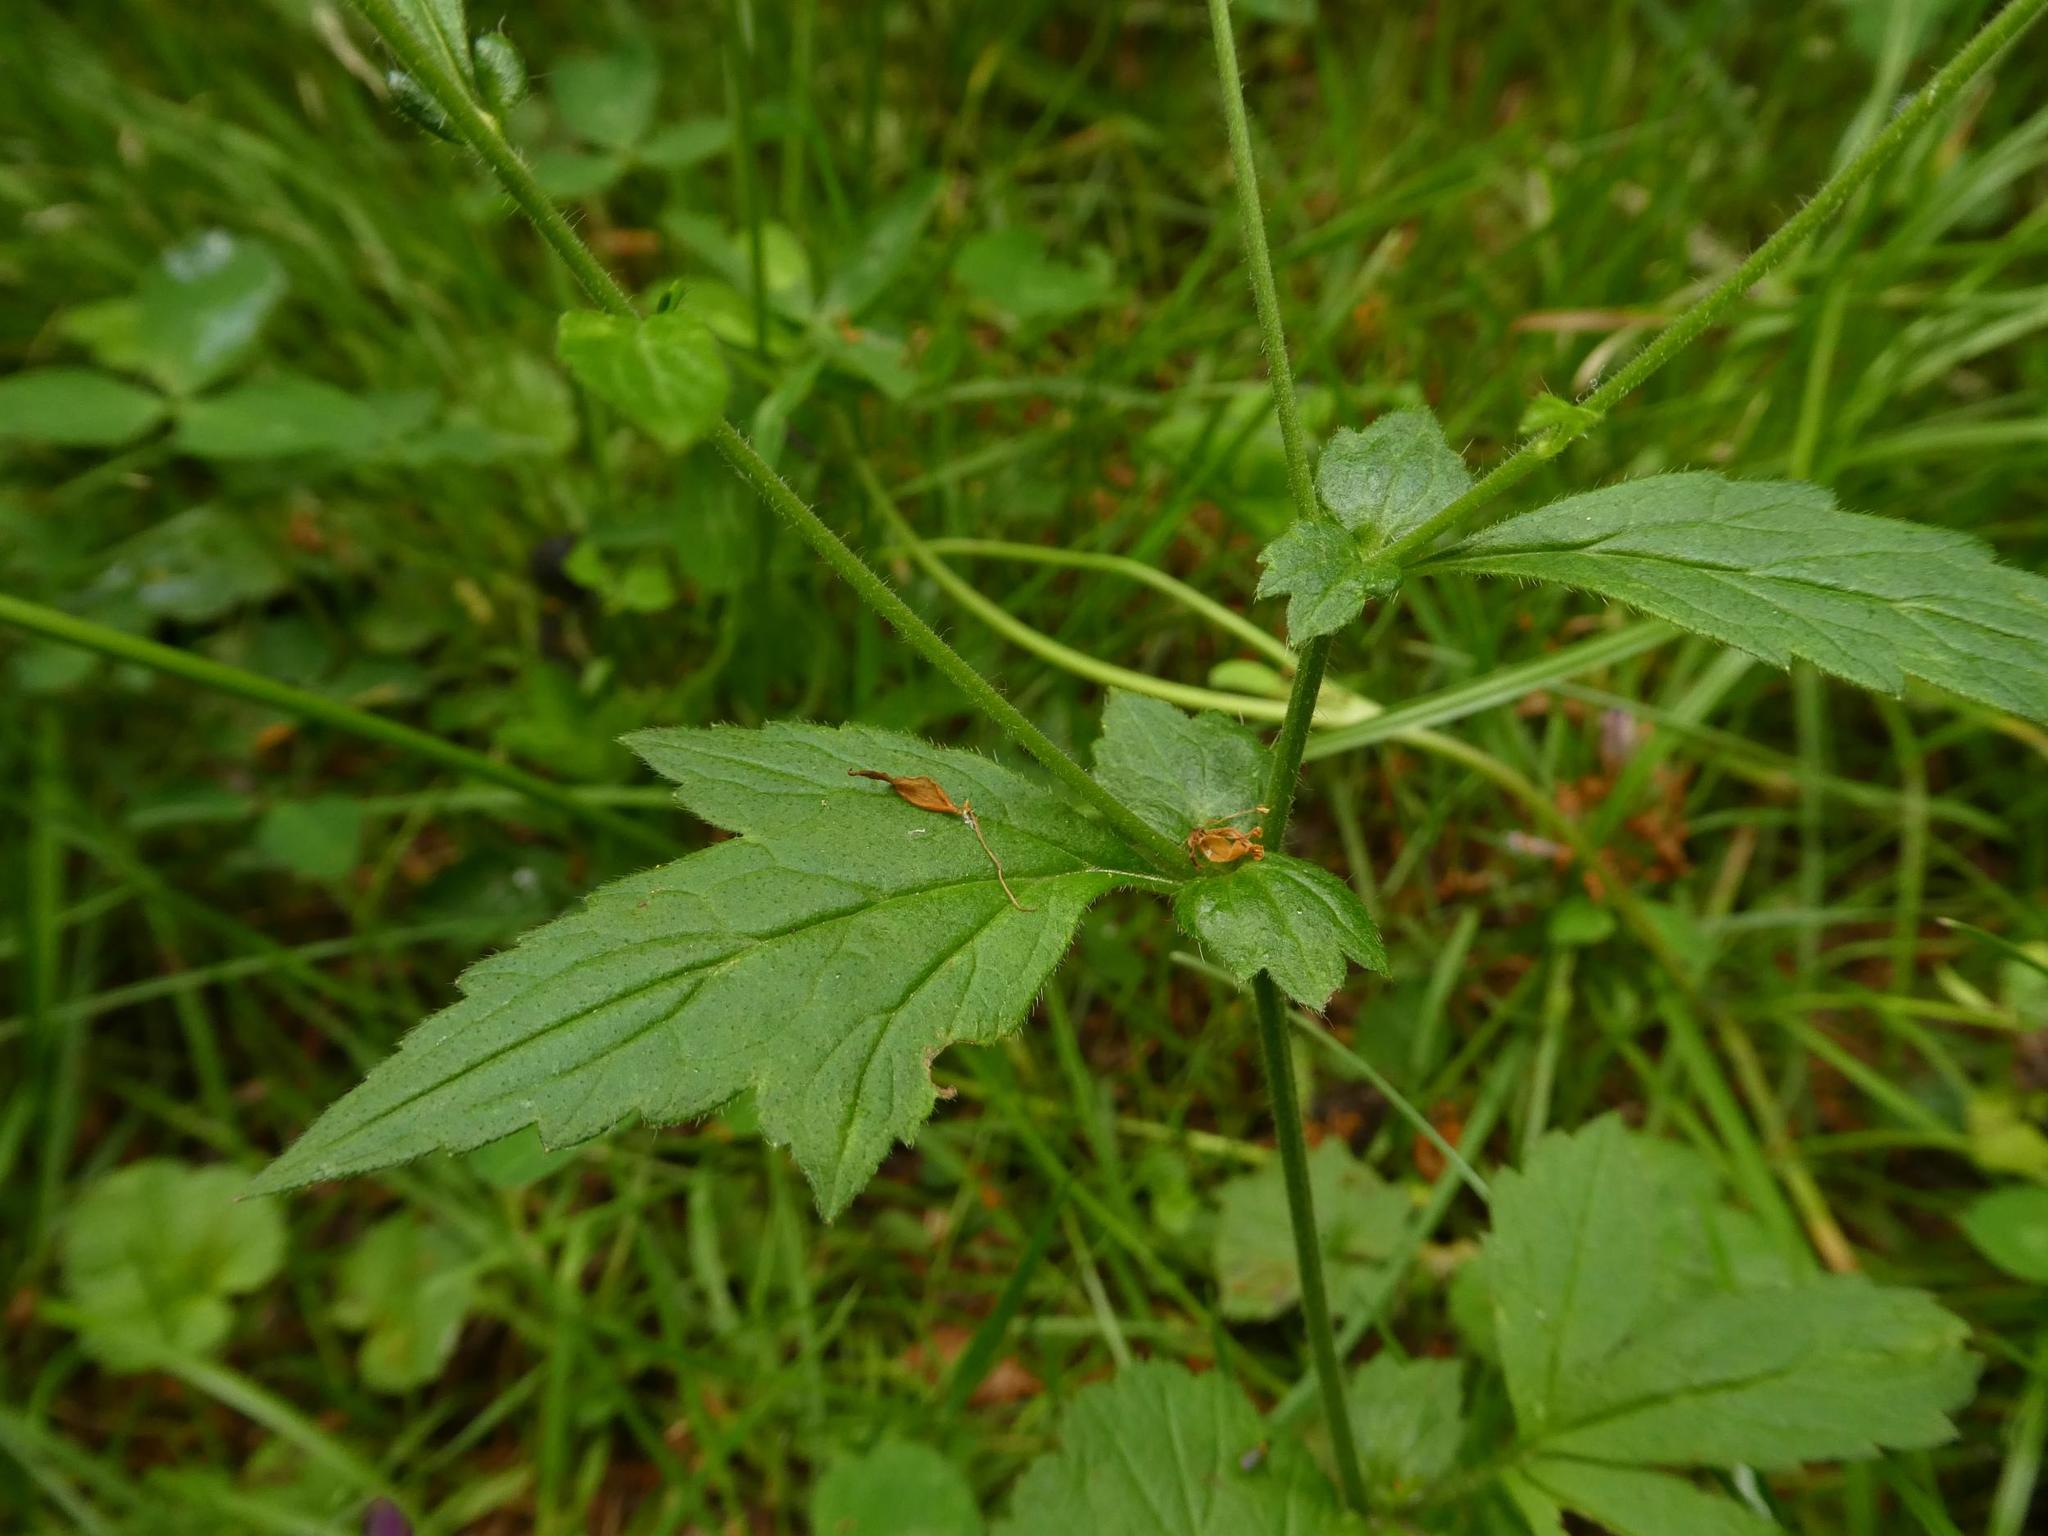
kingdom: Plantae
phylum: Tracheophyta
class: Magnoliopsida
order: Rosales
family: Rosaceae
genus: Geum
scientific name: Geum urbanum
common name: Wood avens
